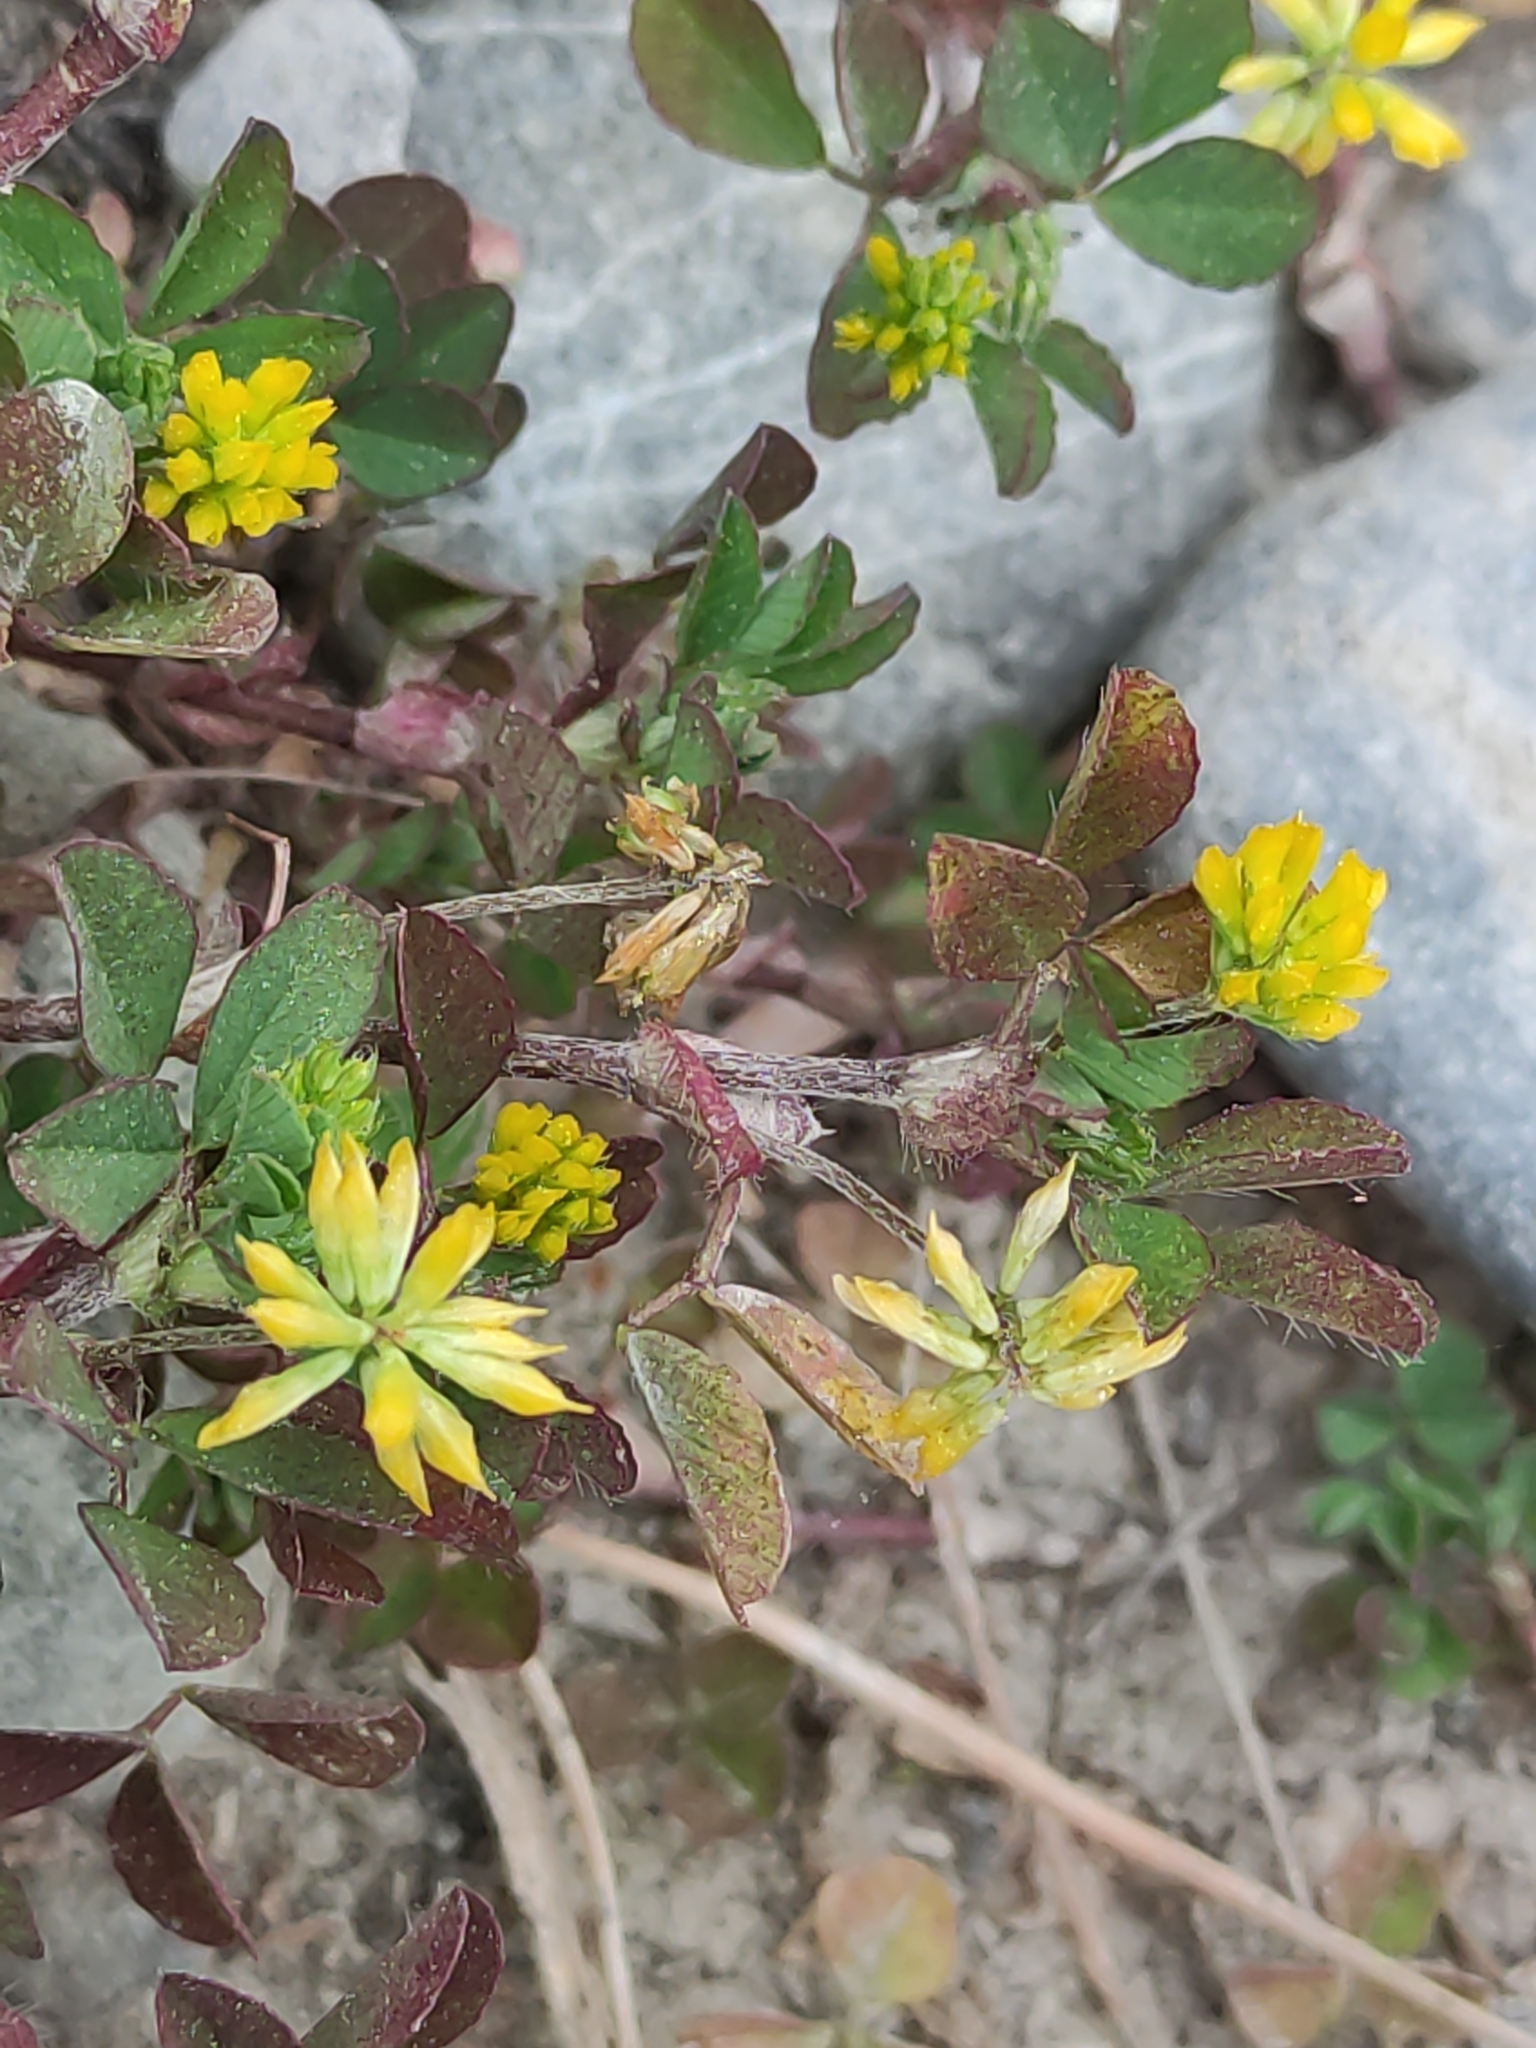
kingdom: Plantae
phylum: Tracheophyta
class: Magnoliopsida
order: Fabales
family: Fabaceae
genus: Trifolium
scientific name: Trifolium dubium
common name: Suckling clover
